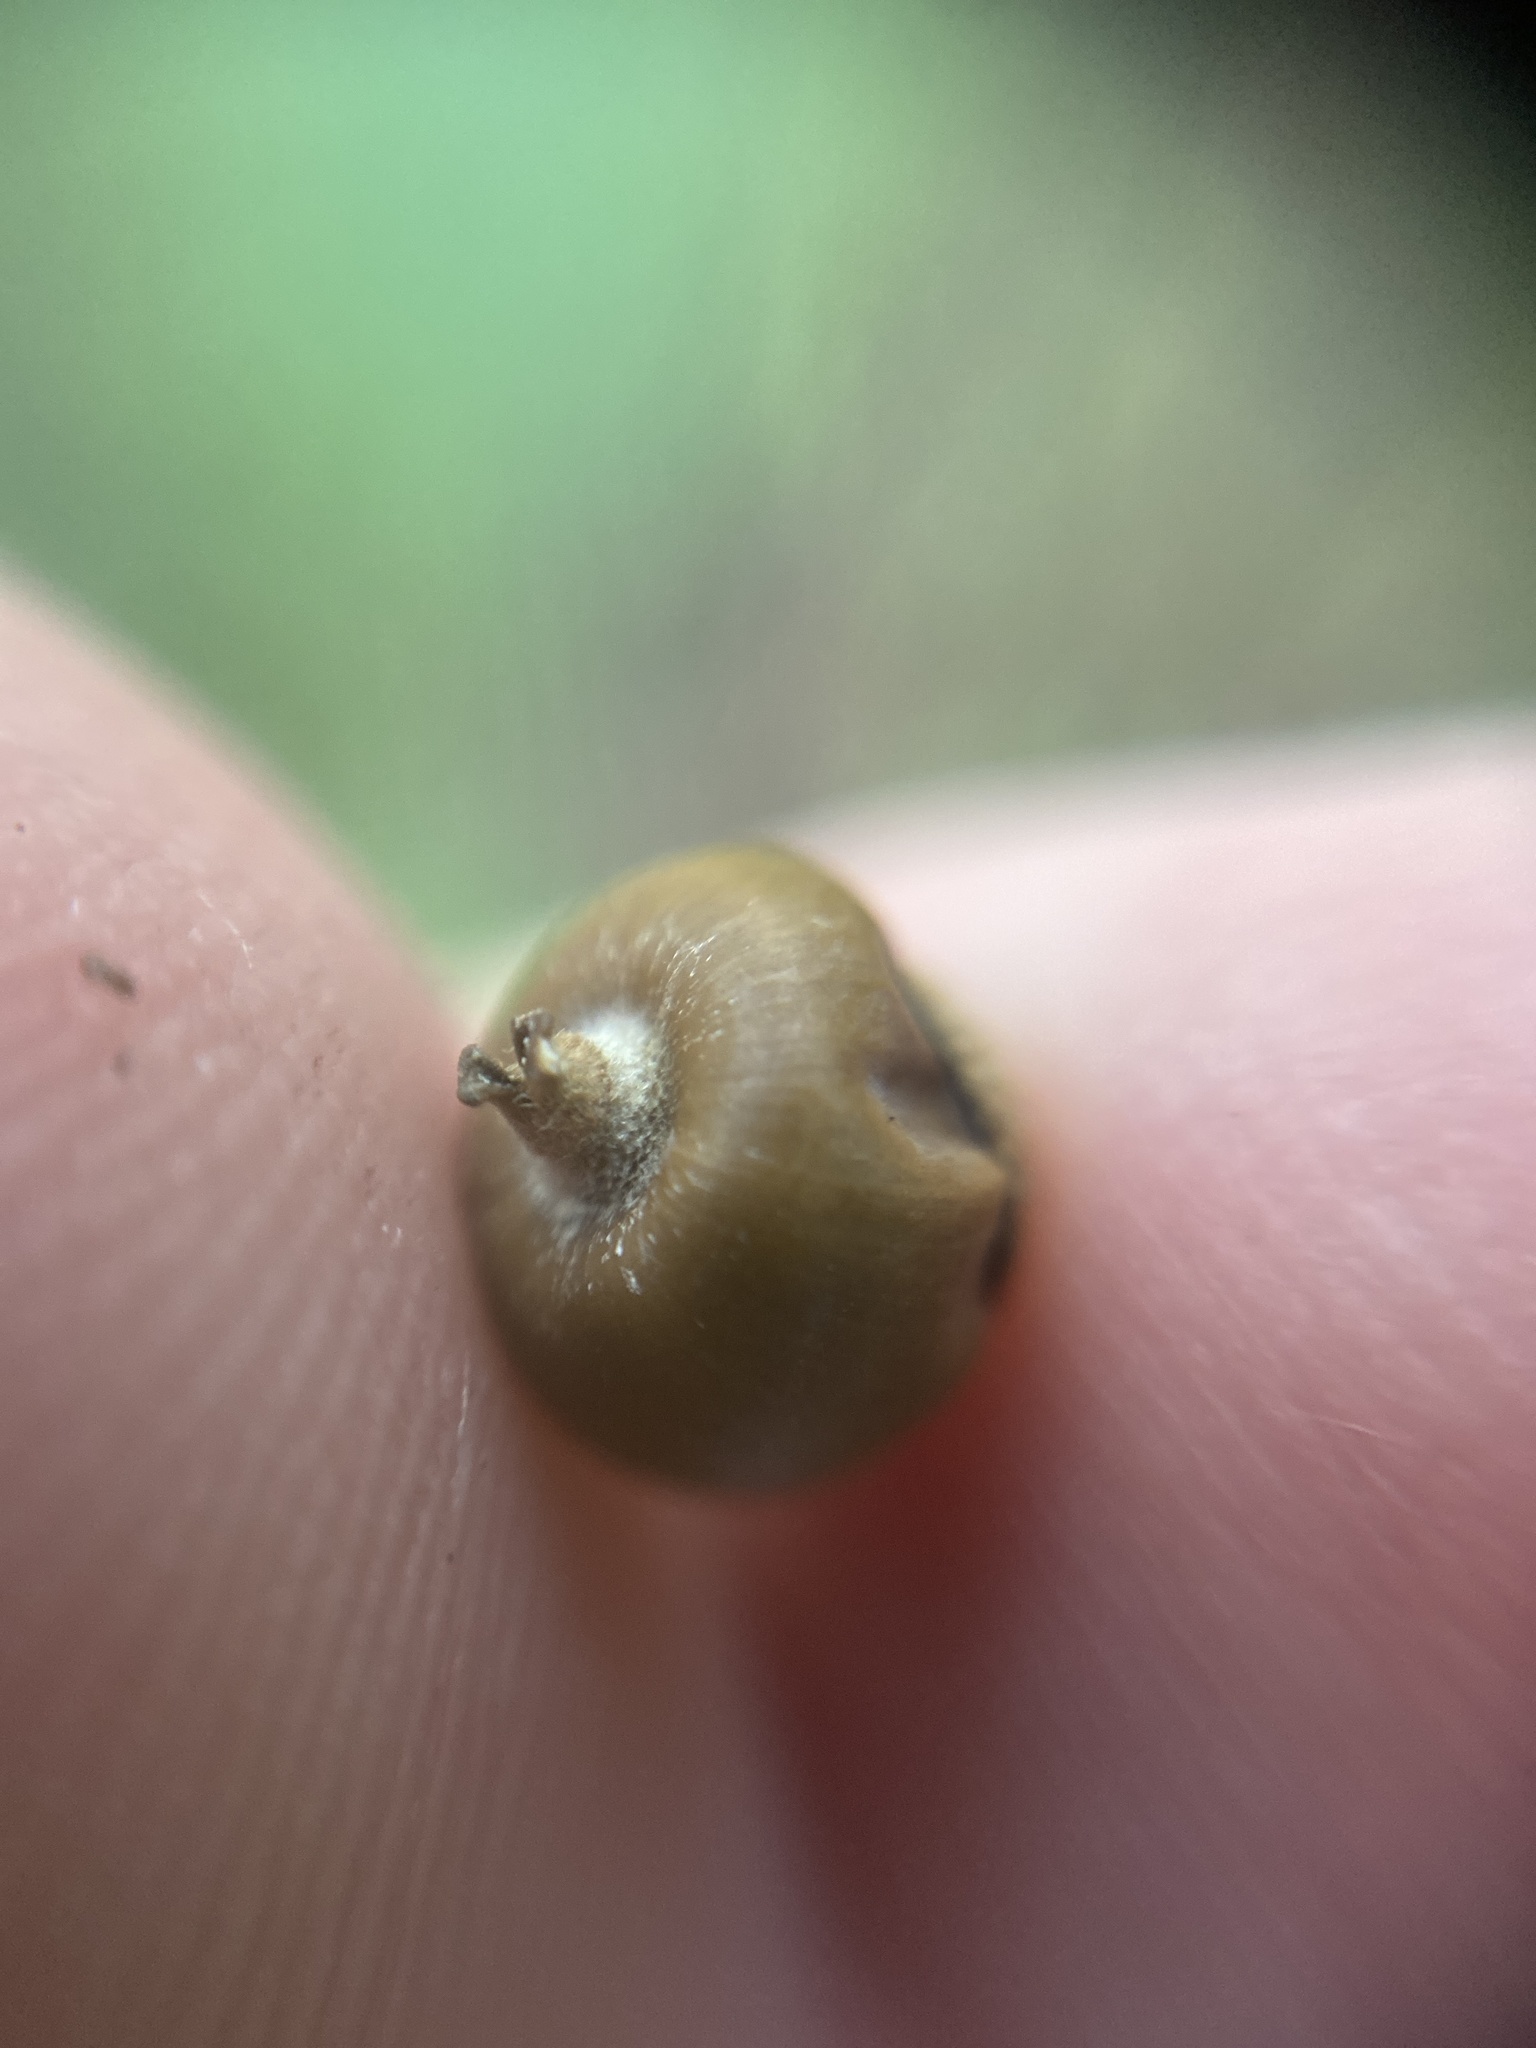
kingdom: Plantae
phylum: Tracheophyta
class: Magnoliopsida
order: Fagales
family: Betulaceae
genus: Carpinus
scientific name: Carpinus betulus
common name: Hornbeam
